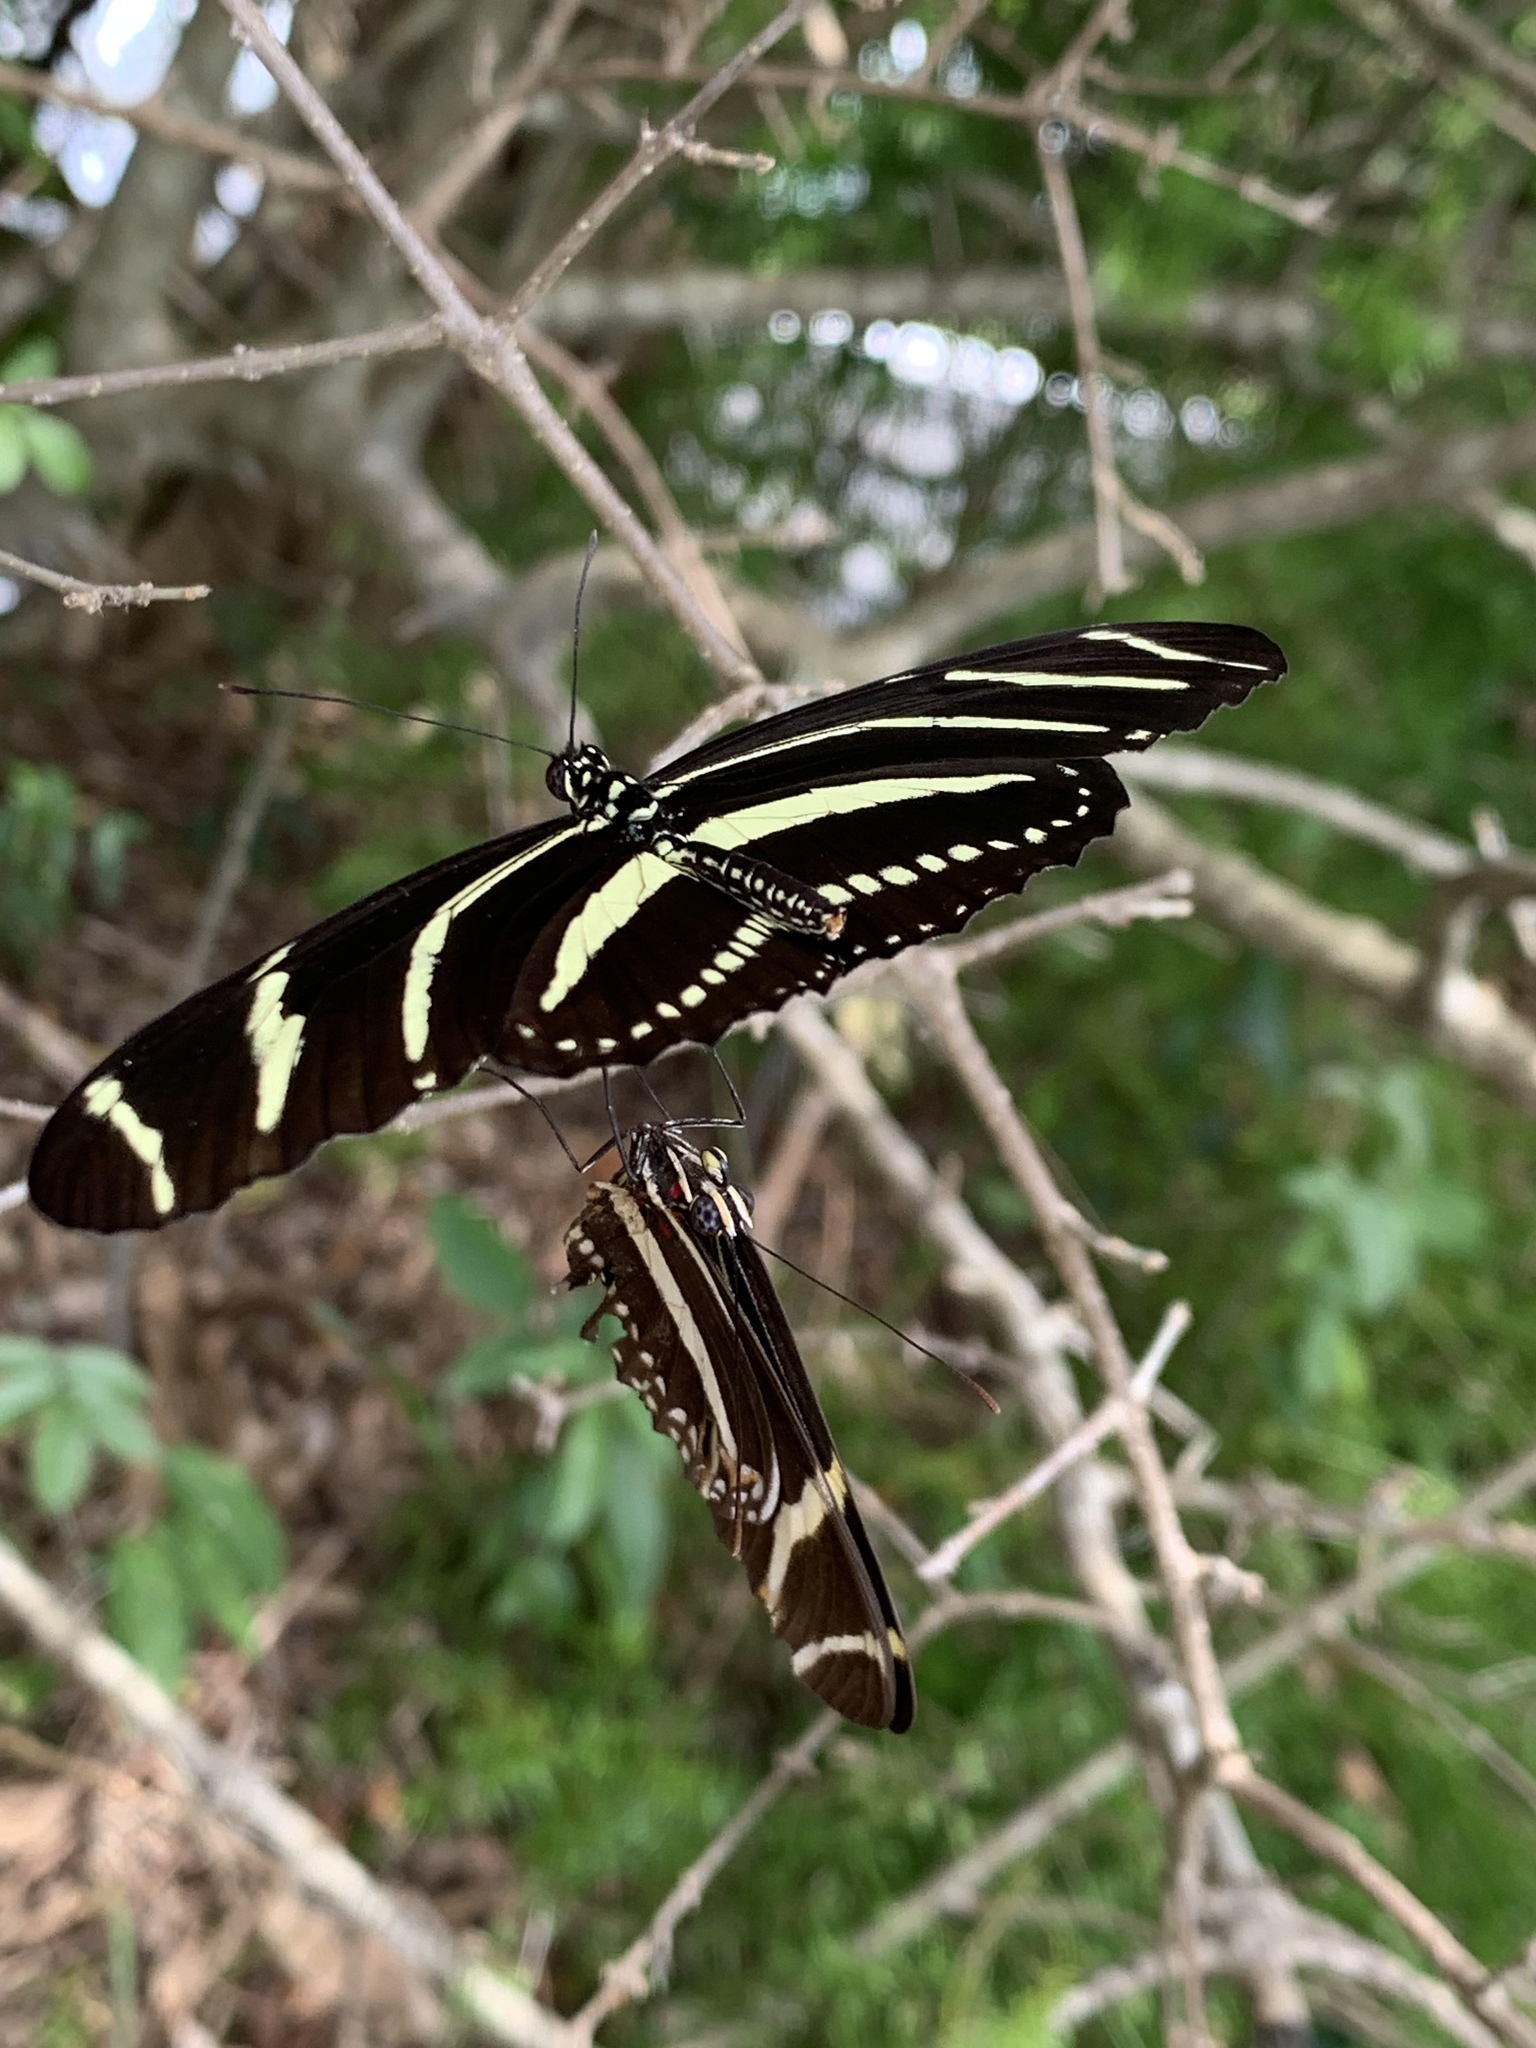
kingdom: Animalia
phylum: Arthropoda
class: Insecta
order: Lepidoptera
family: Nymphalidae
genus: Heliconius
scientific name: Heliconius charithonia
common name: Zebra long wing
